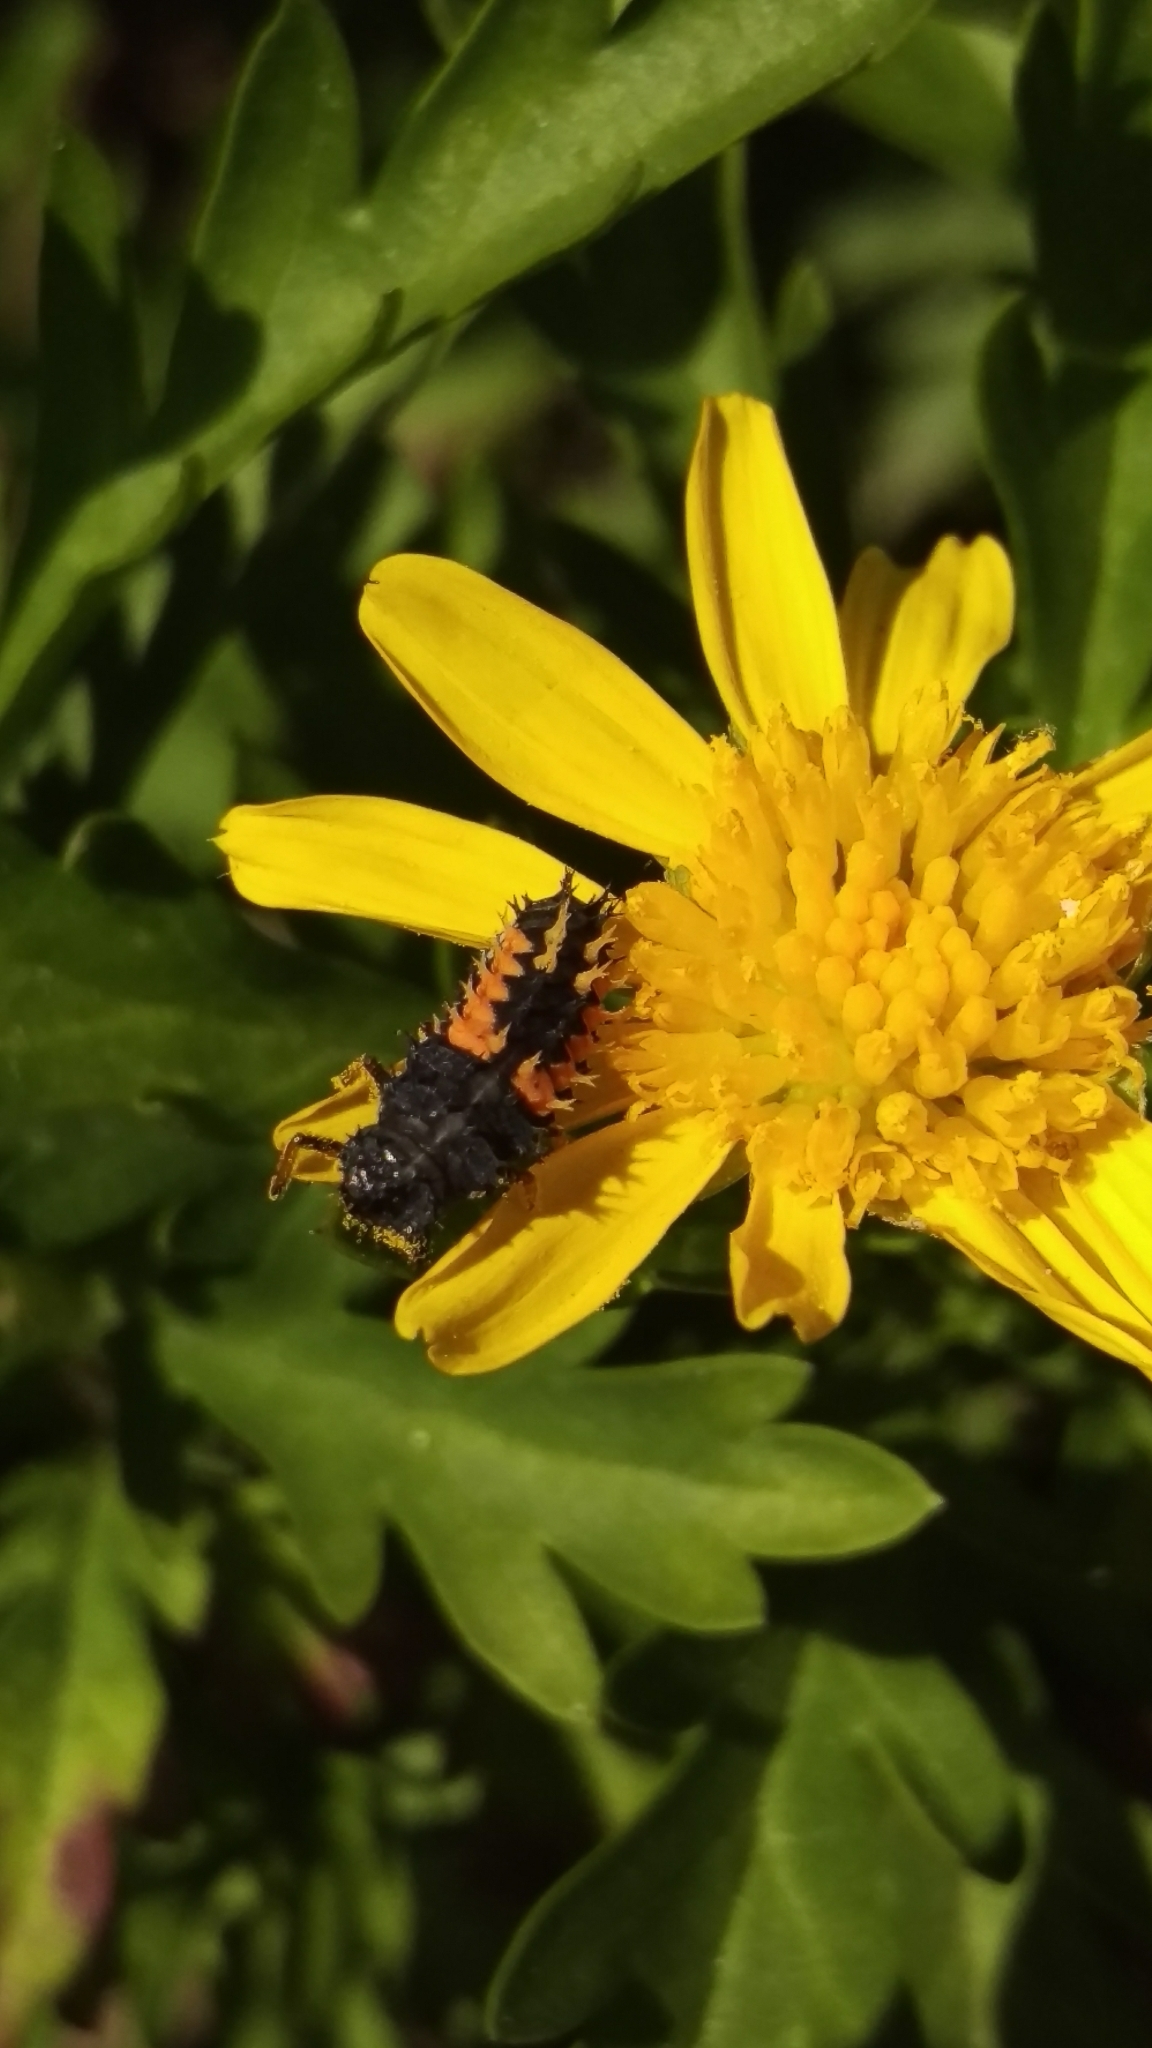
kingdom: Animalia
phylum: Arthropoda
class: Insecta
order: Coleoptera
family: Coccinellidae
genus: Harmonia
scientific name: Harmonia axyridis
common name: Harlequin ladybird
